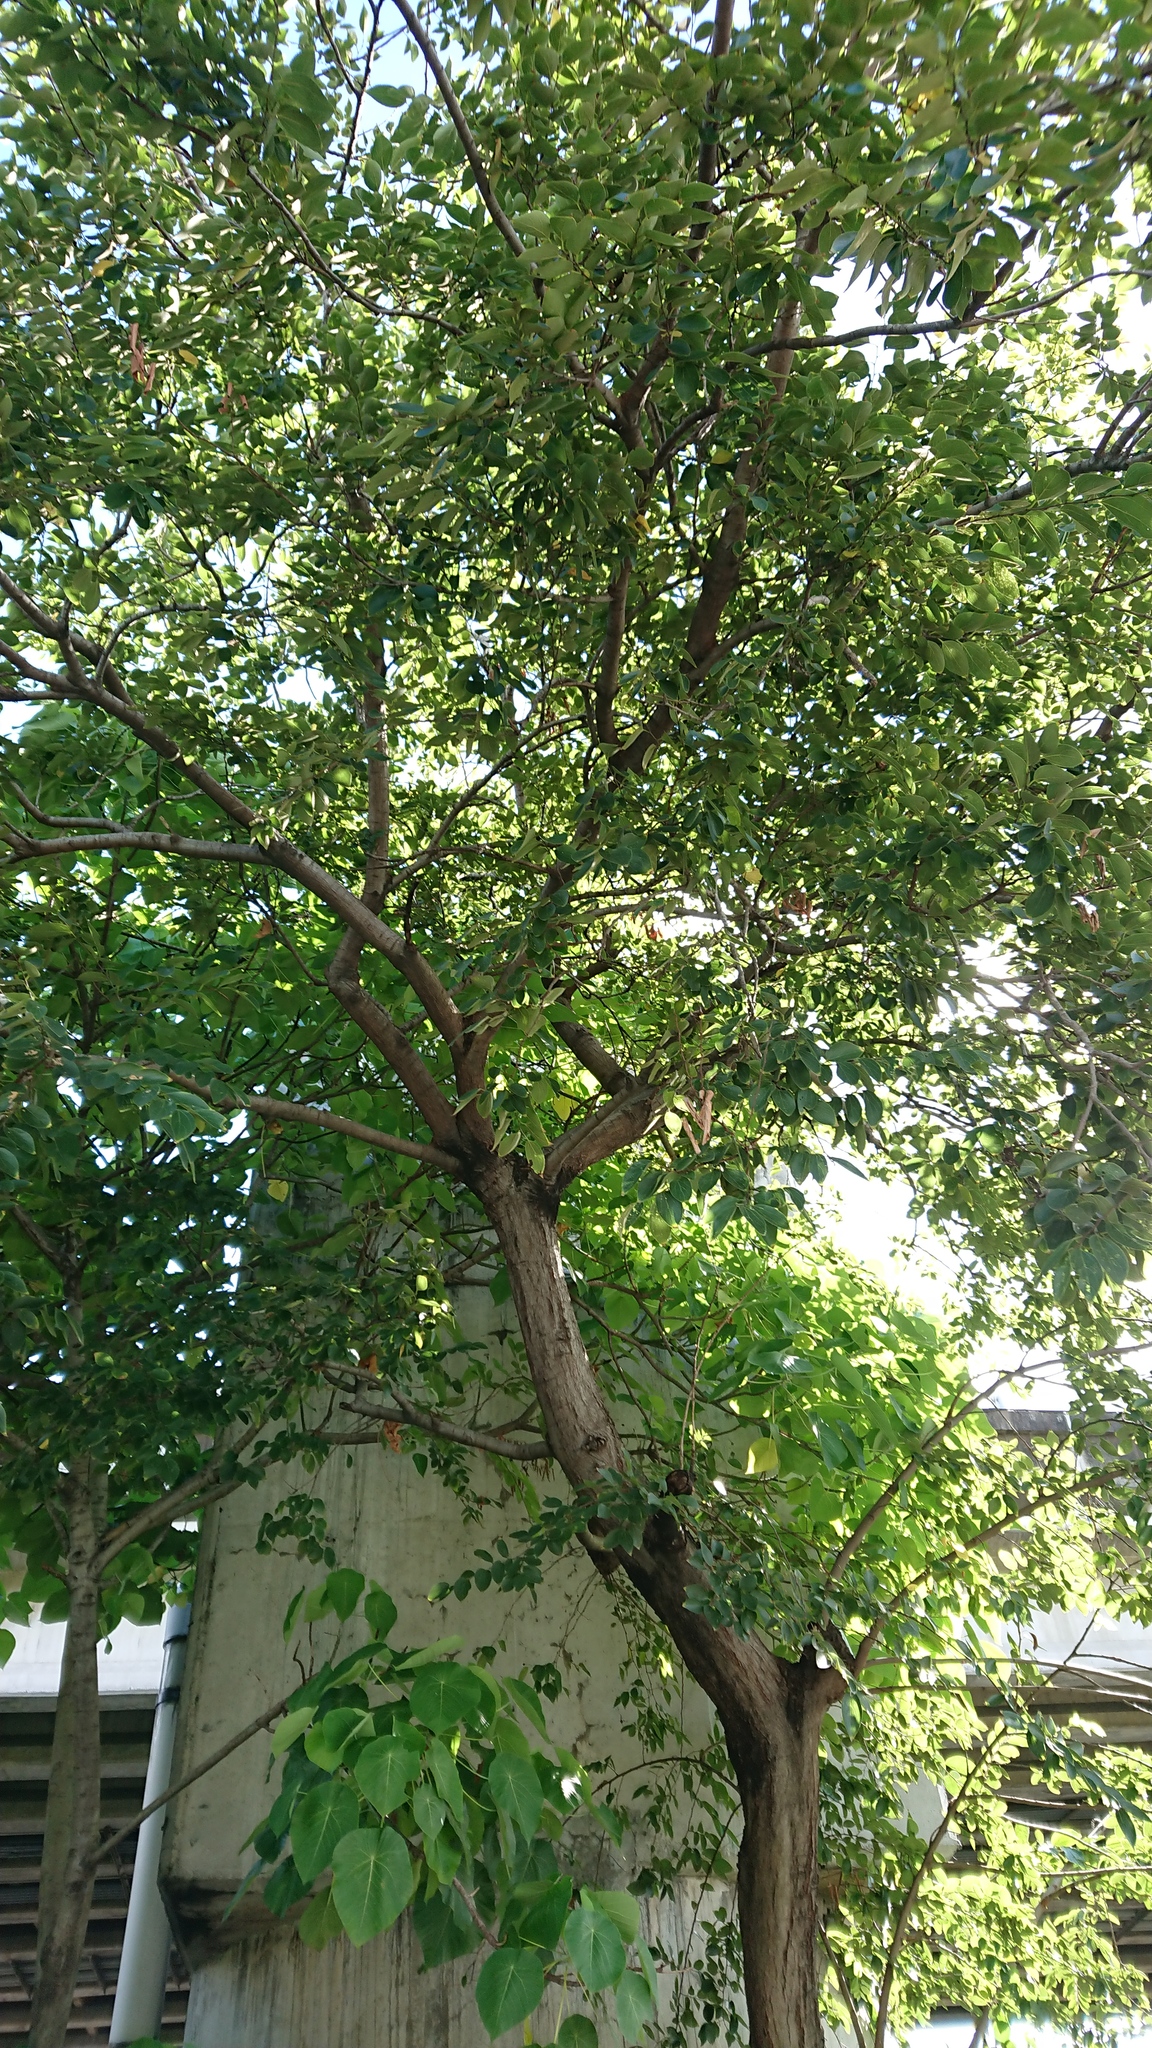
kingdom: Plantae
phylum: Tracheophyta
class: Magnoliopsida
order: Rosales
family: Cannabaceae
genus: Celtis
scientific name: Celtis sinensis
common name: Chinese hackberry
